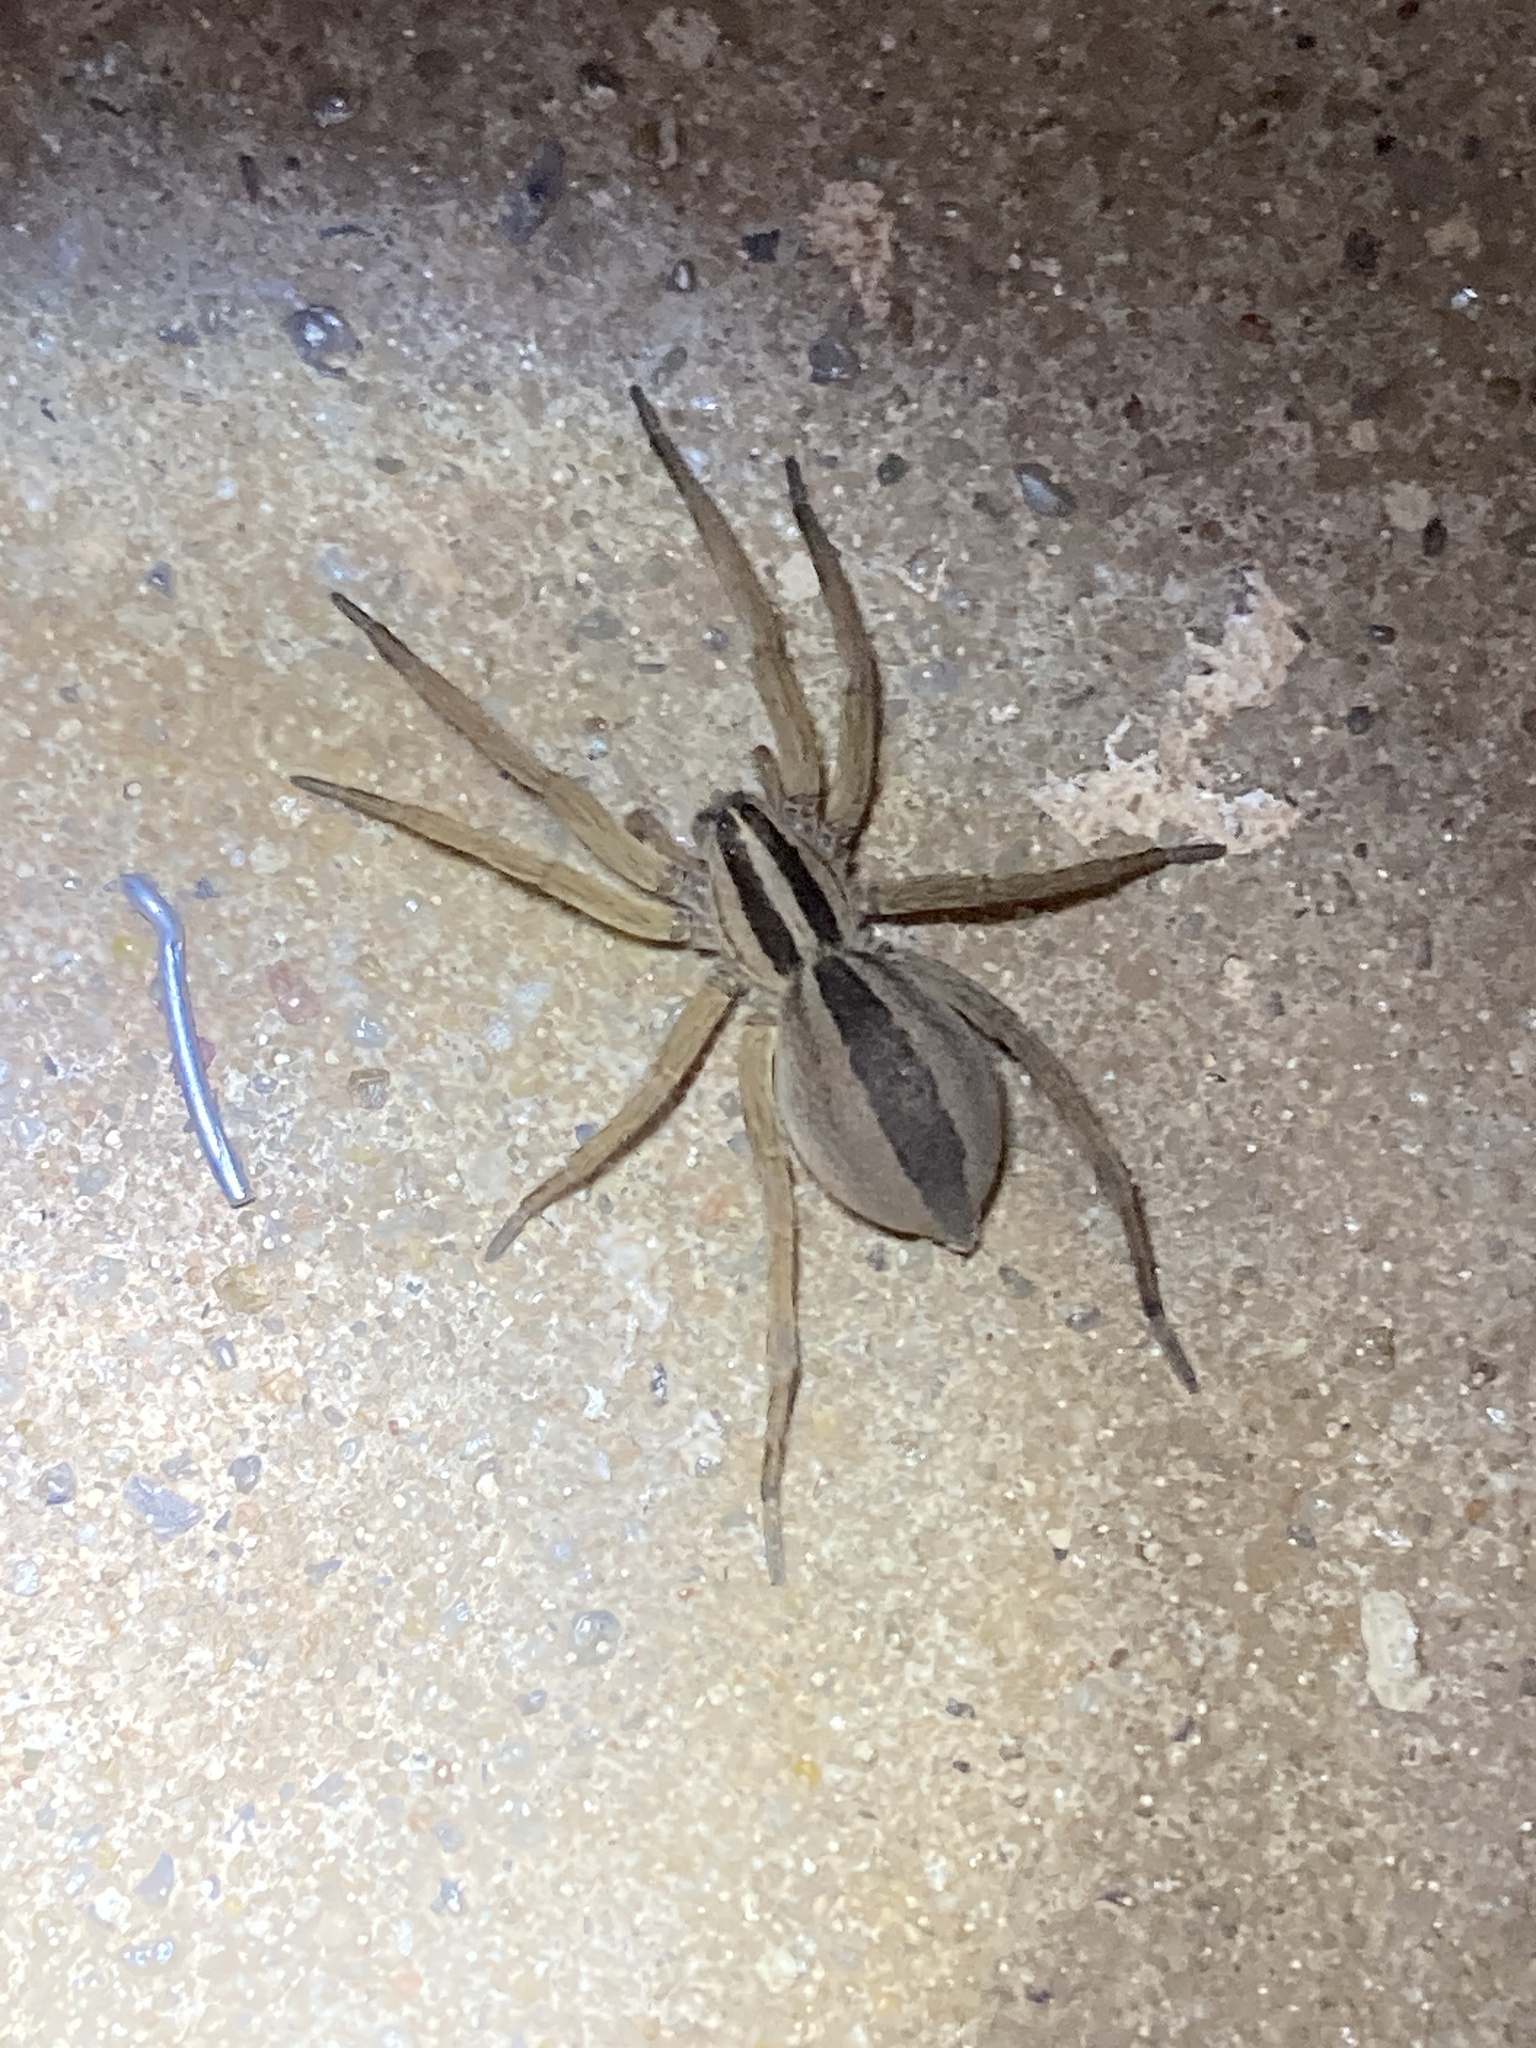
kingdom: Animalia
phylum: Arthropoda
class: Arachnida
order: Araneae
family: Lycosidae
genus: Rabidosa
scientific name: Rabidosa punctulata
